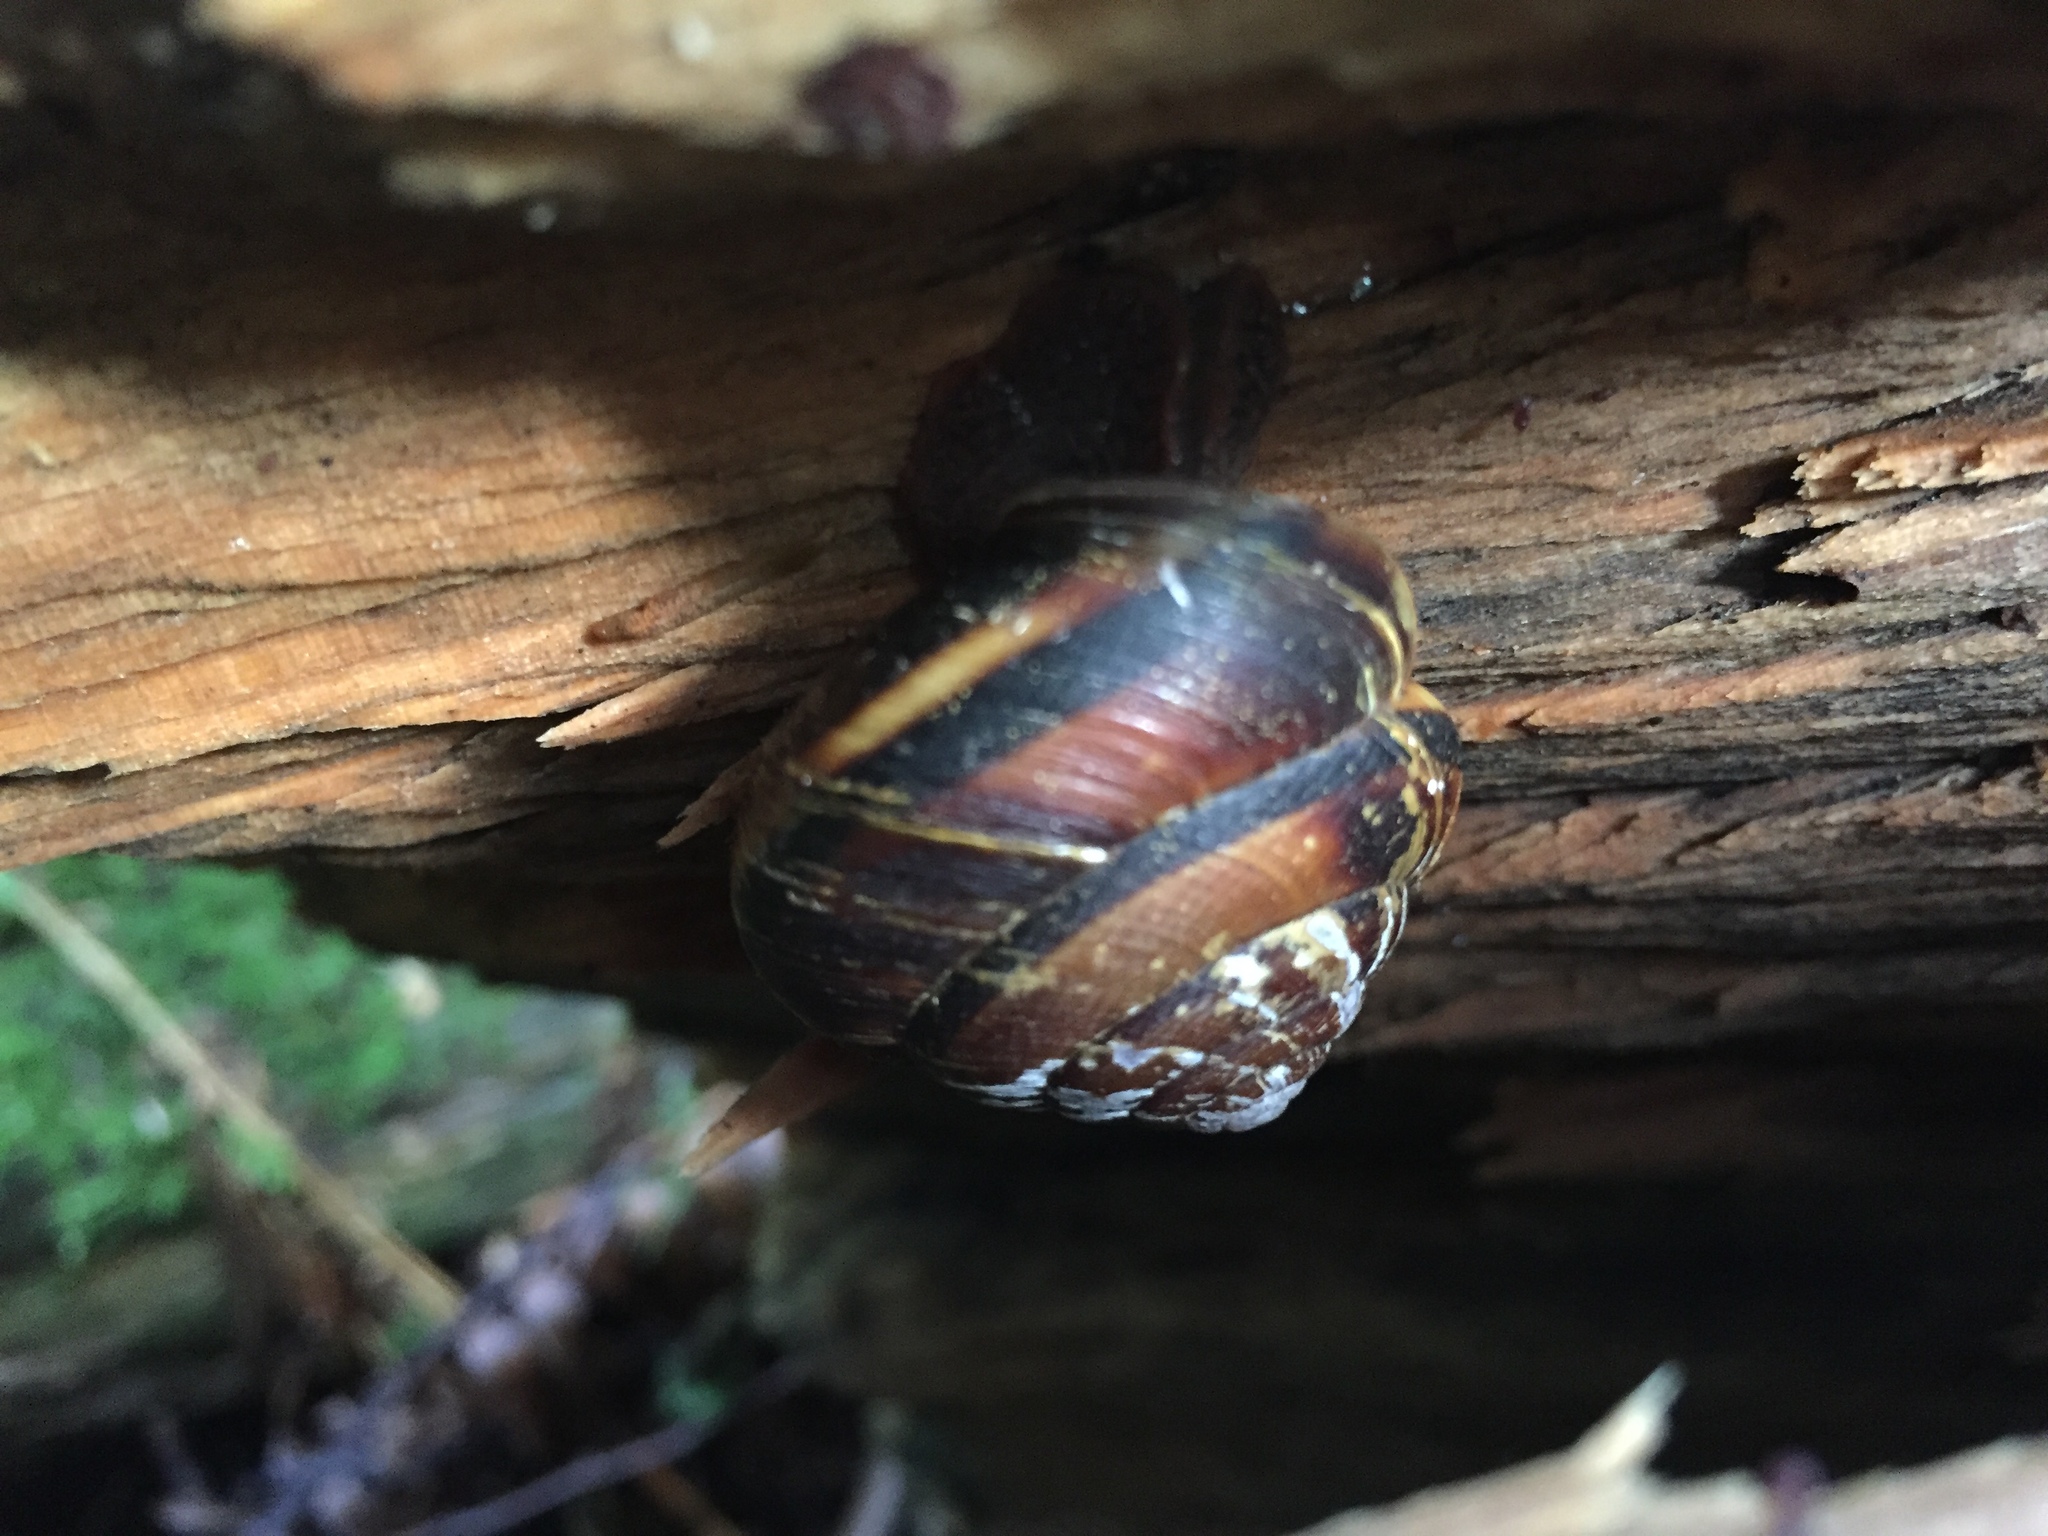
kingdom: Animalia
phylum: Mollusca
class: Gastropoda
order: Stylommatophora
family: Xanthonychidae
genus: Monadenia
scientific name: Monadenia fidelis
